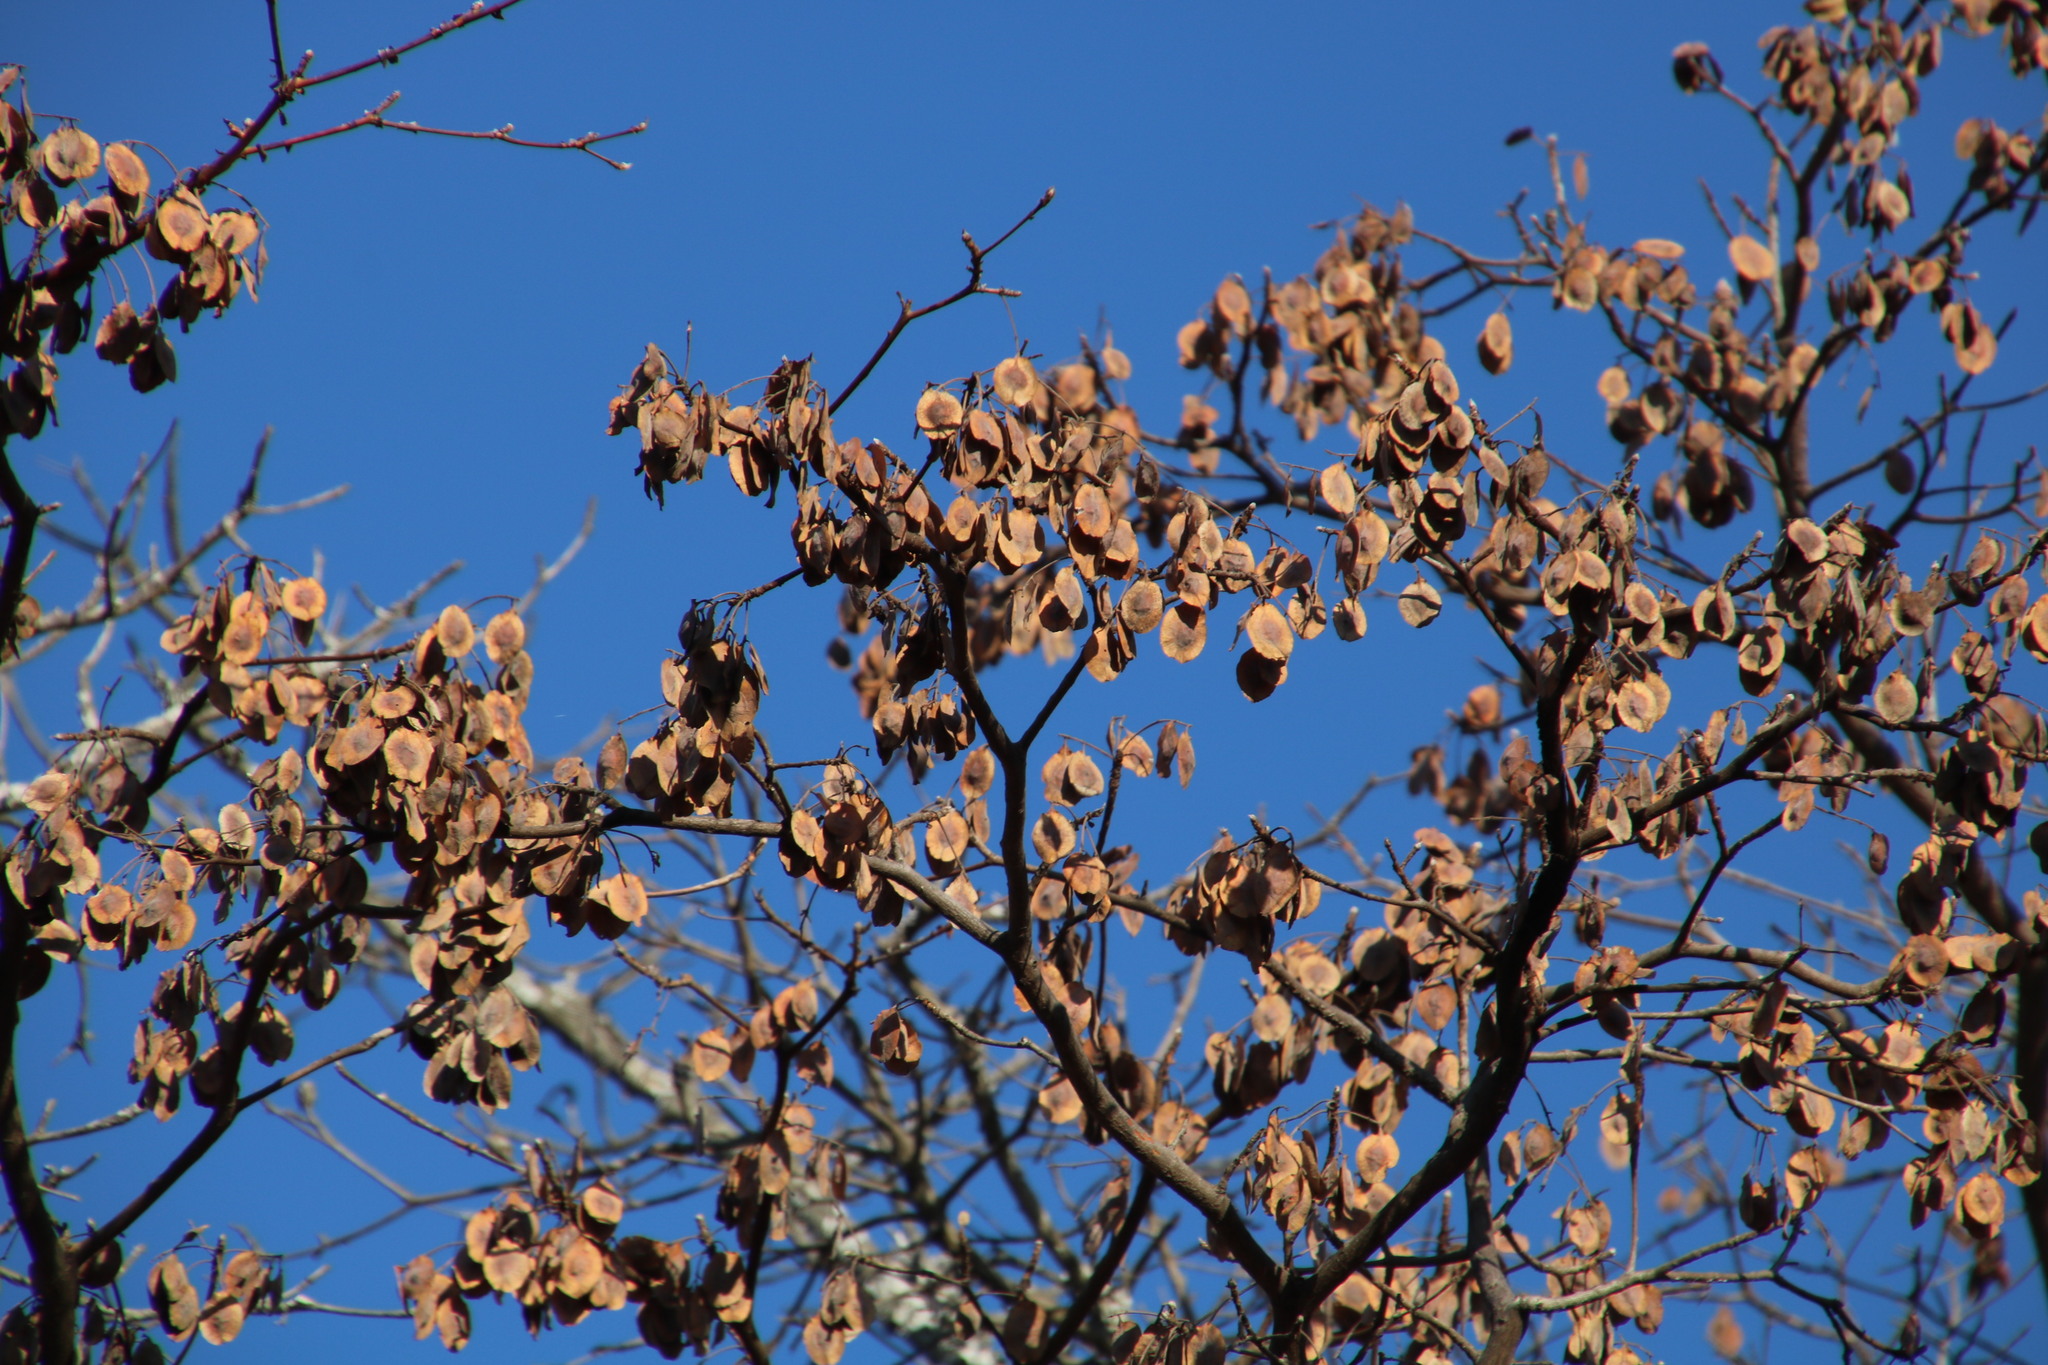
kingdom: Plantae
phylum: Tracheophyta
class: Magnoliopsida
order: Myrtales
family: Combretaceae
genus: Terminalia
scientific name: Terminalia sericea
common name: Clusterleaf
